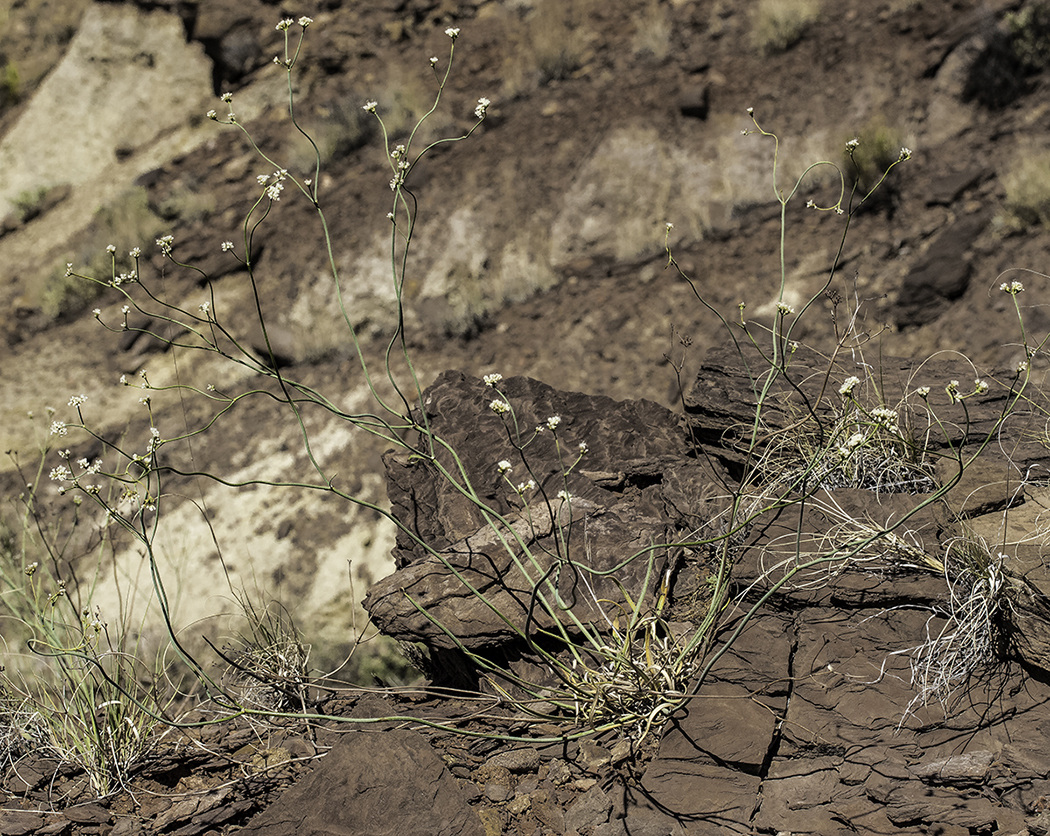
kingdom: Plantae
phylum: Tracheophyta
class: Magnoliopsida
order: Caryophyllales
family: Polygonaceae
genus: Eriogonum
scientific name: Eriogonum lonchophyllum
